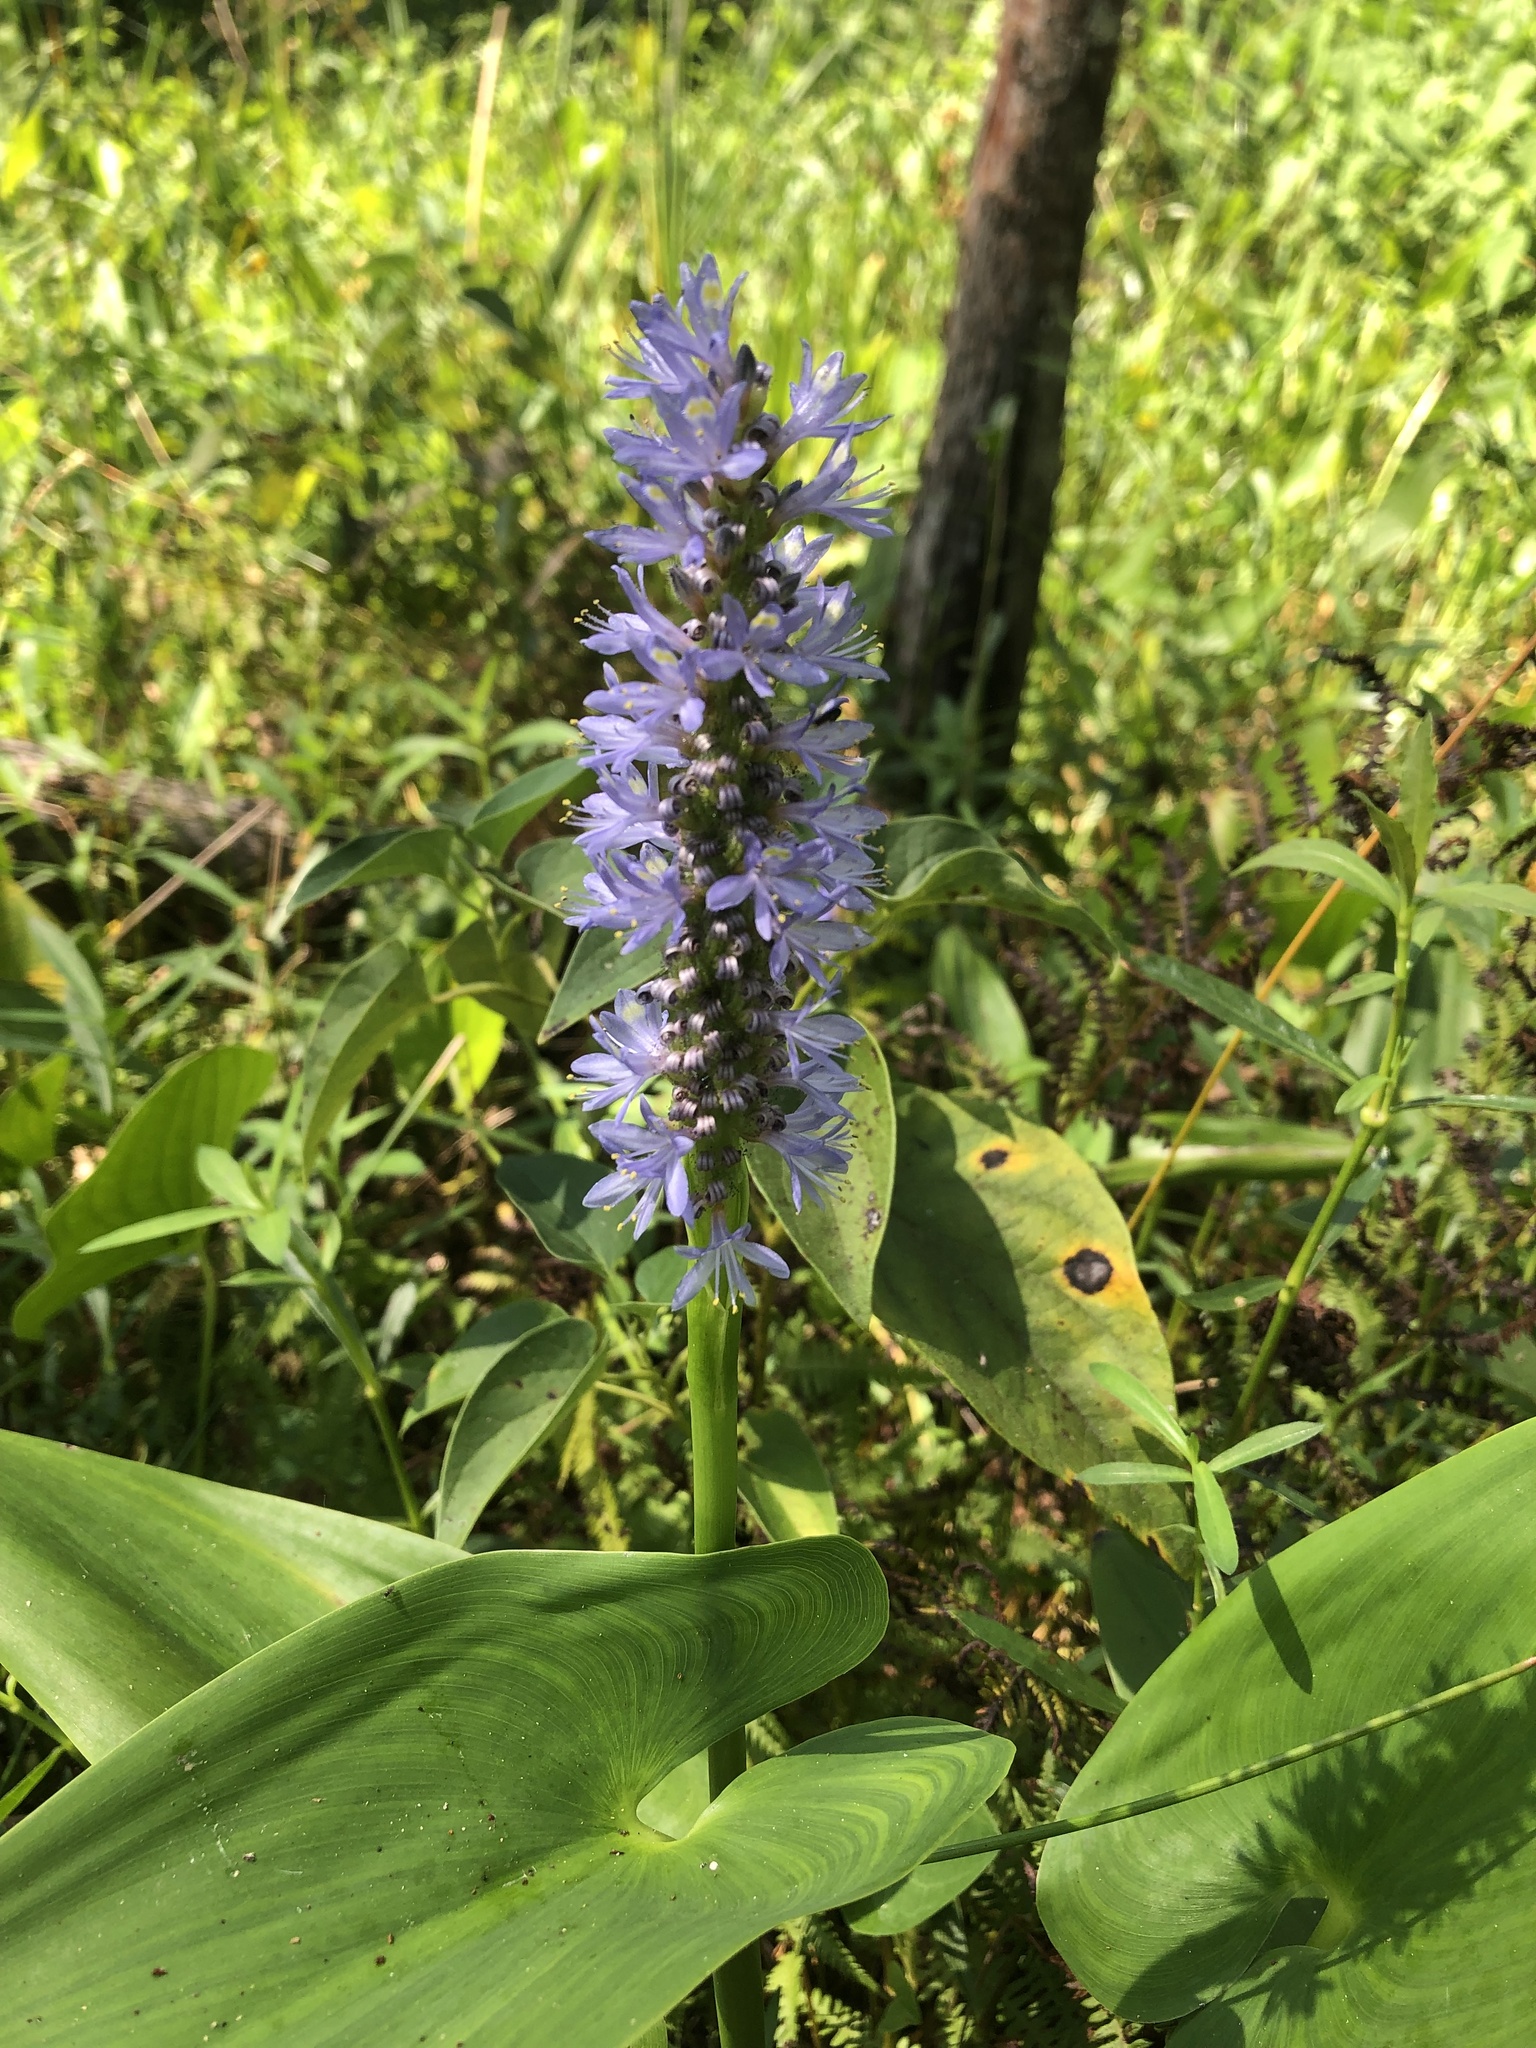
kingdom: Plantae
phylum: Tracheophyta
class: Liliopsida
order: Commelinales
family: Pontederiaceae
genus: Pontederia
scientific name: Pontederia cordata
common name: Pickerelweed
